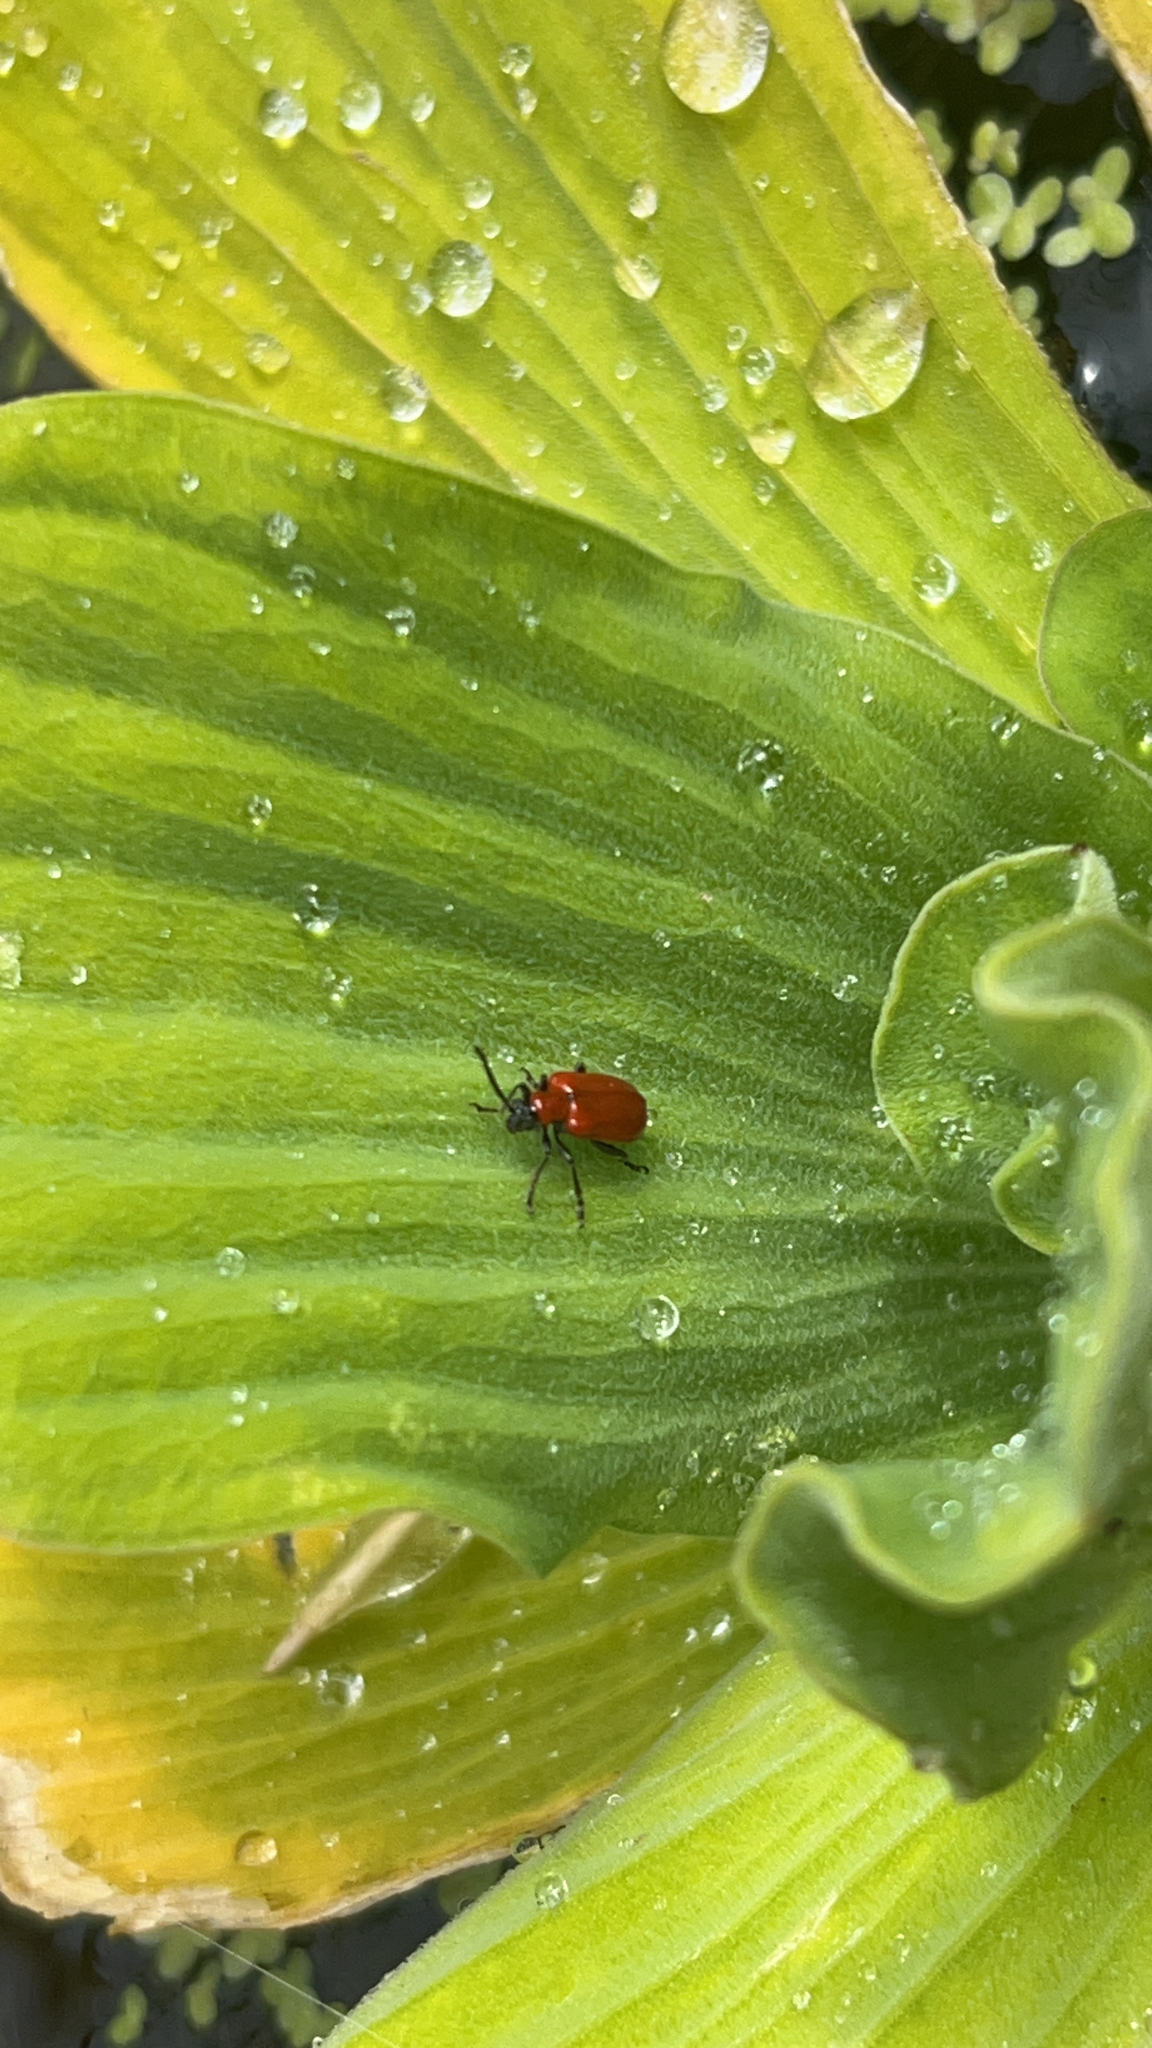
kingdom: Animalia
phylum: Arthropoda
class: Insecta
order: Coleoptera
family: Chrysomelidae
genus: Lilioceris
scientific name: Lilioceris lilii
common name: Lily beetle
